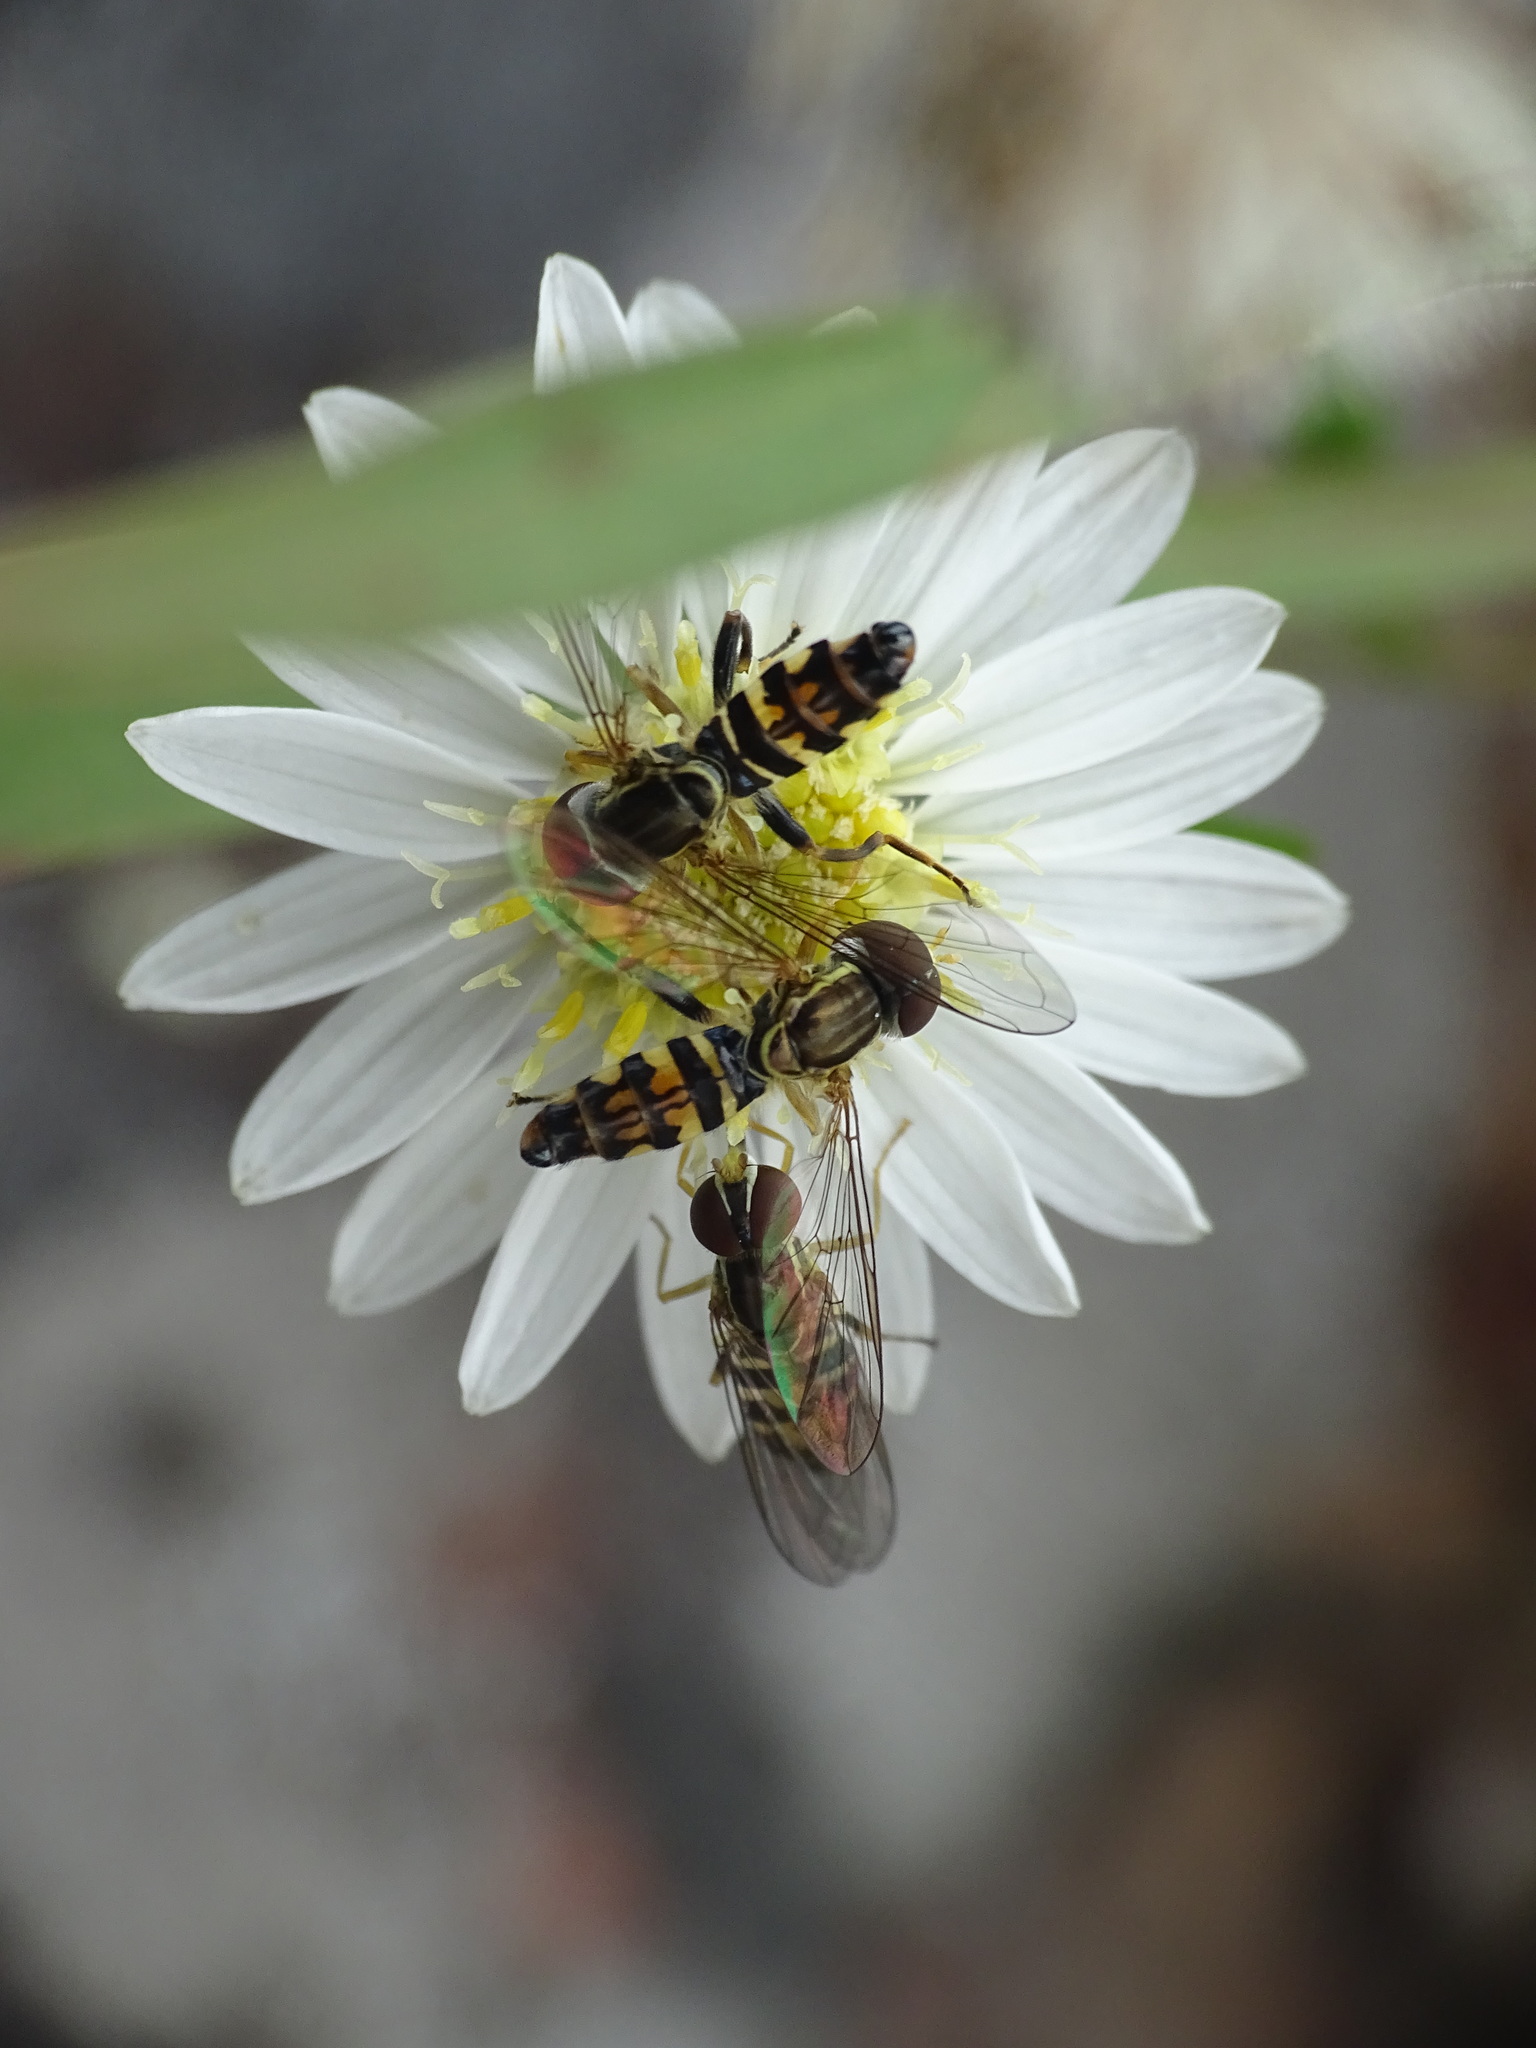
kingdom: Animalia
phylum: Arthropoda
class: Insecta
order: Diptera
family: Syrphidae
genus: Toxomerus
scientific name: Toxomerus geminatus
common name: Eastern calligrapher
